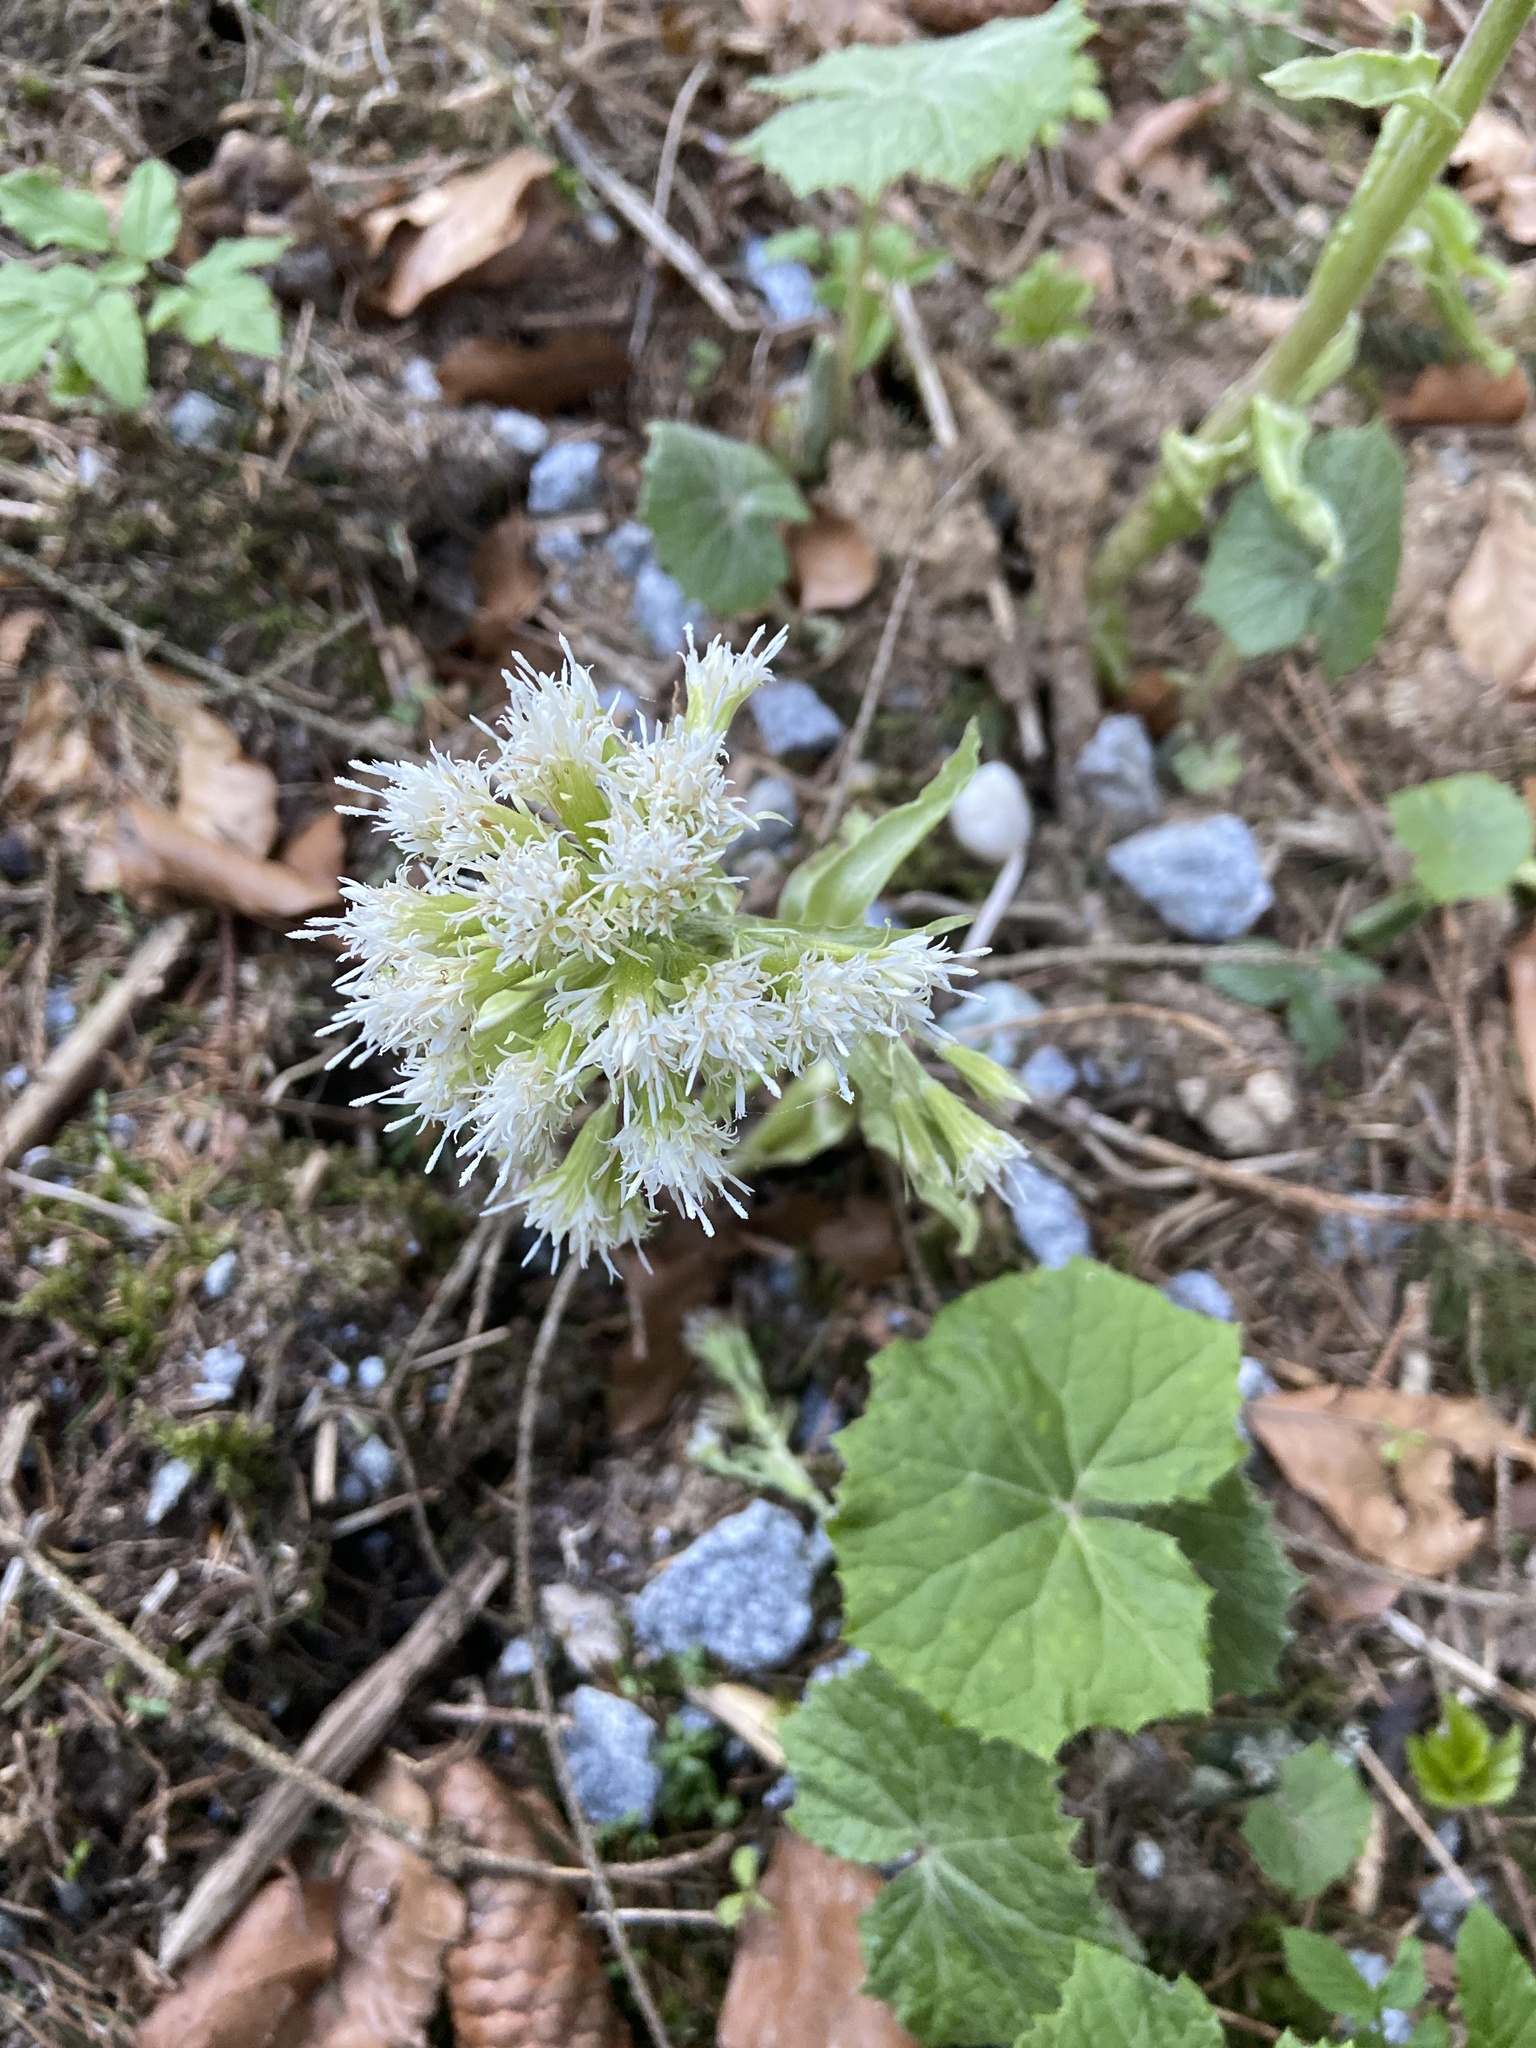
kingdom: Plantae
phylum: Tracheophyta
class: Magnoliopsida
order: Asterales
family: Asteraceae
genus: Petasites
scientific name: Petasites albus
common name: White butterbur
